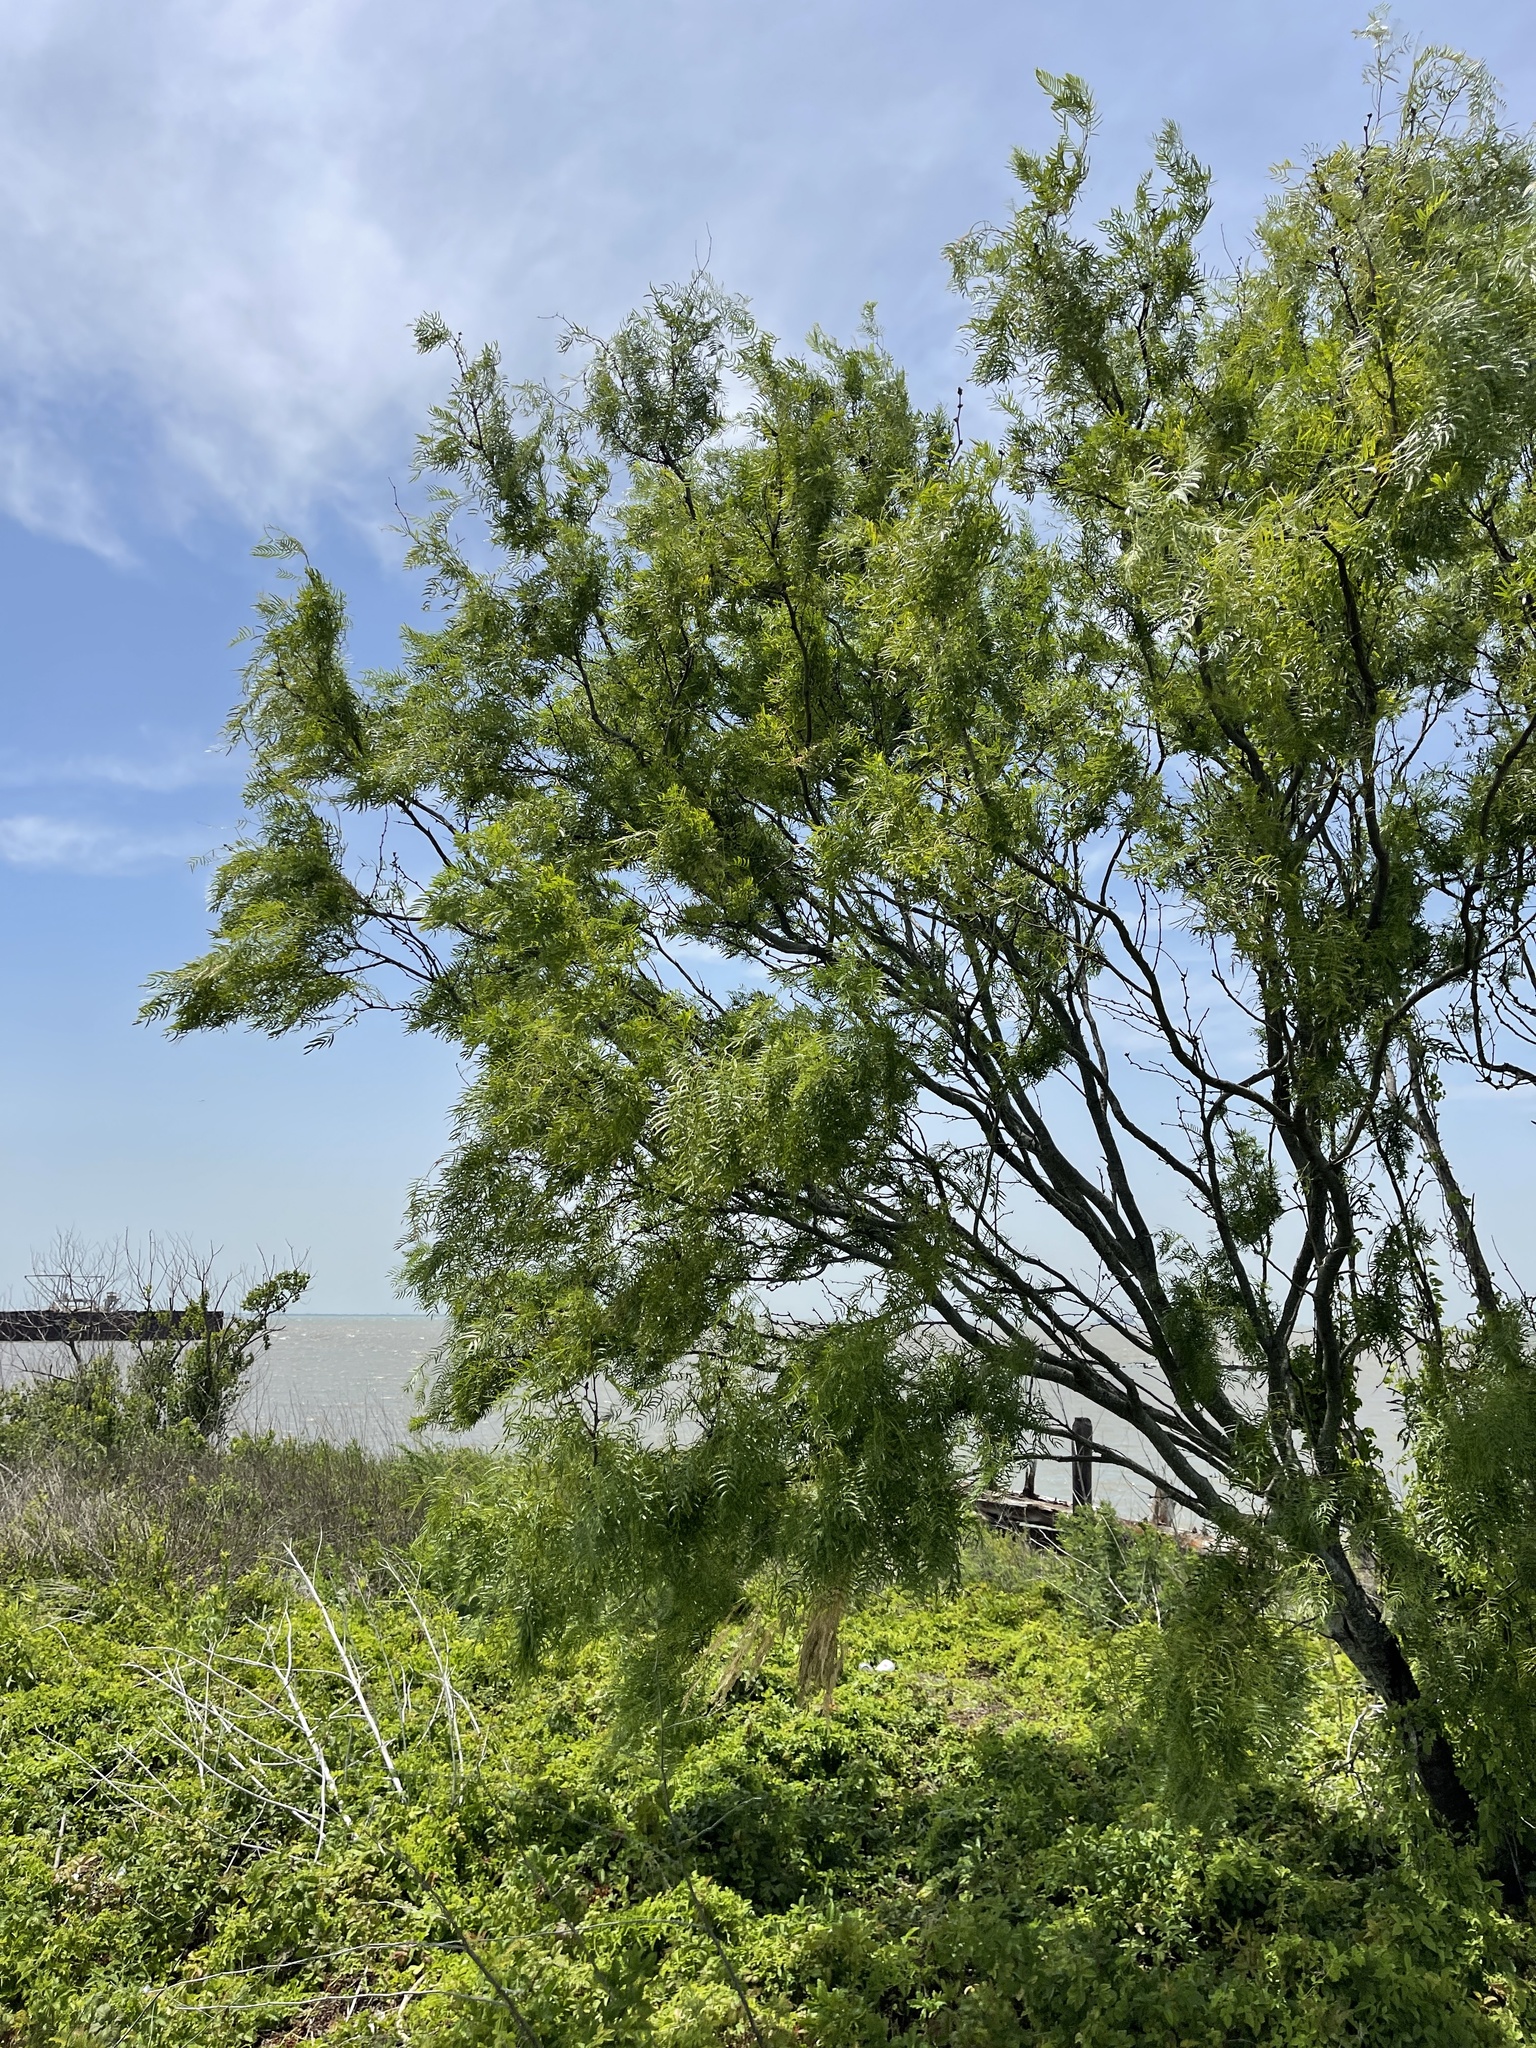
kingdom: Plantae
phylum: Tracheophyta
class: Magnoliopsida
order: Fabales
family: Fabaceae
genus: Prosopis
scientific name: Prosopis glandulosa
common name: Honey mesquite
